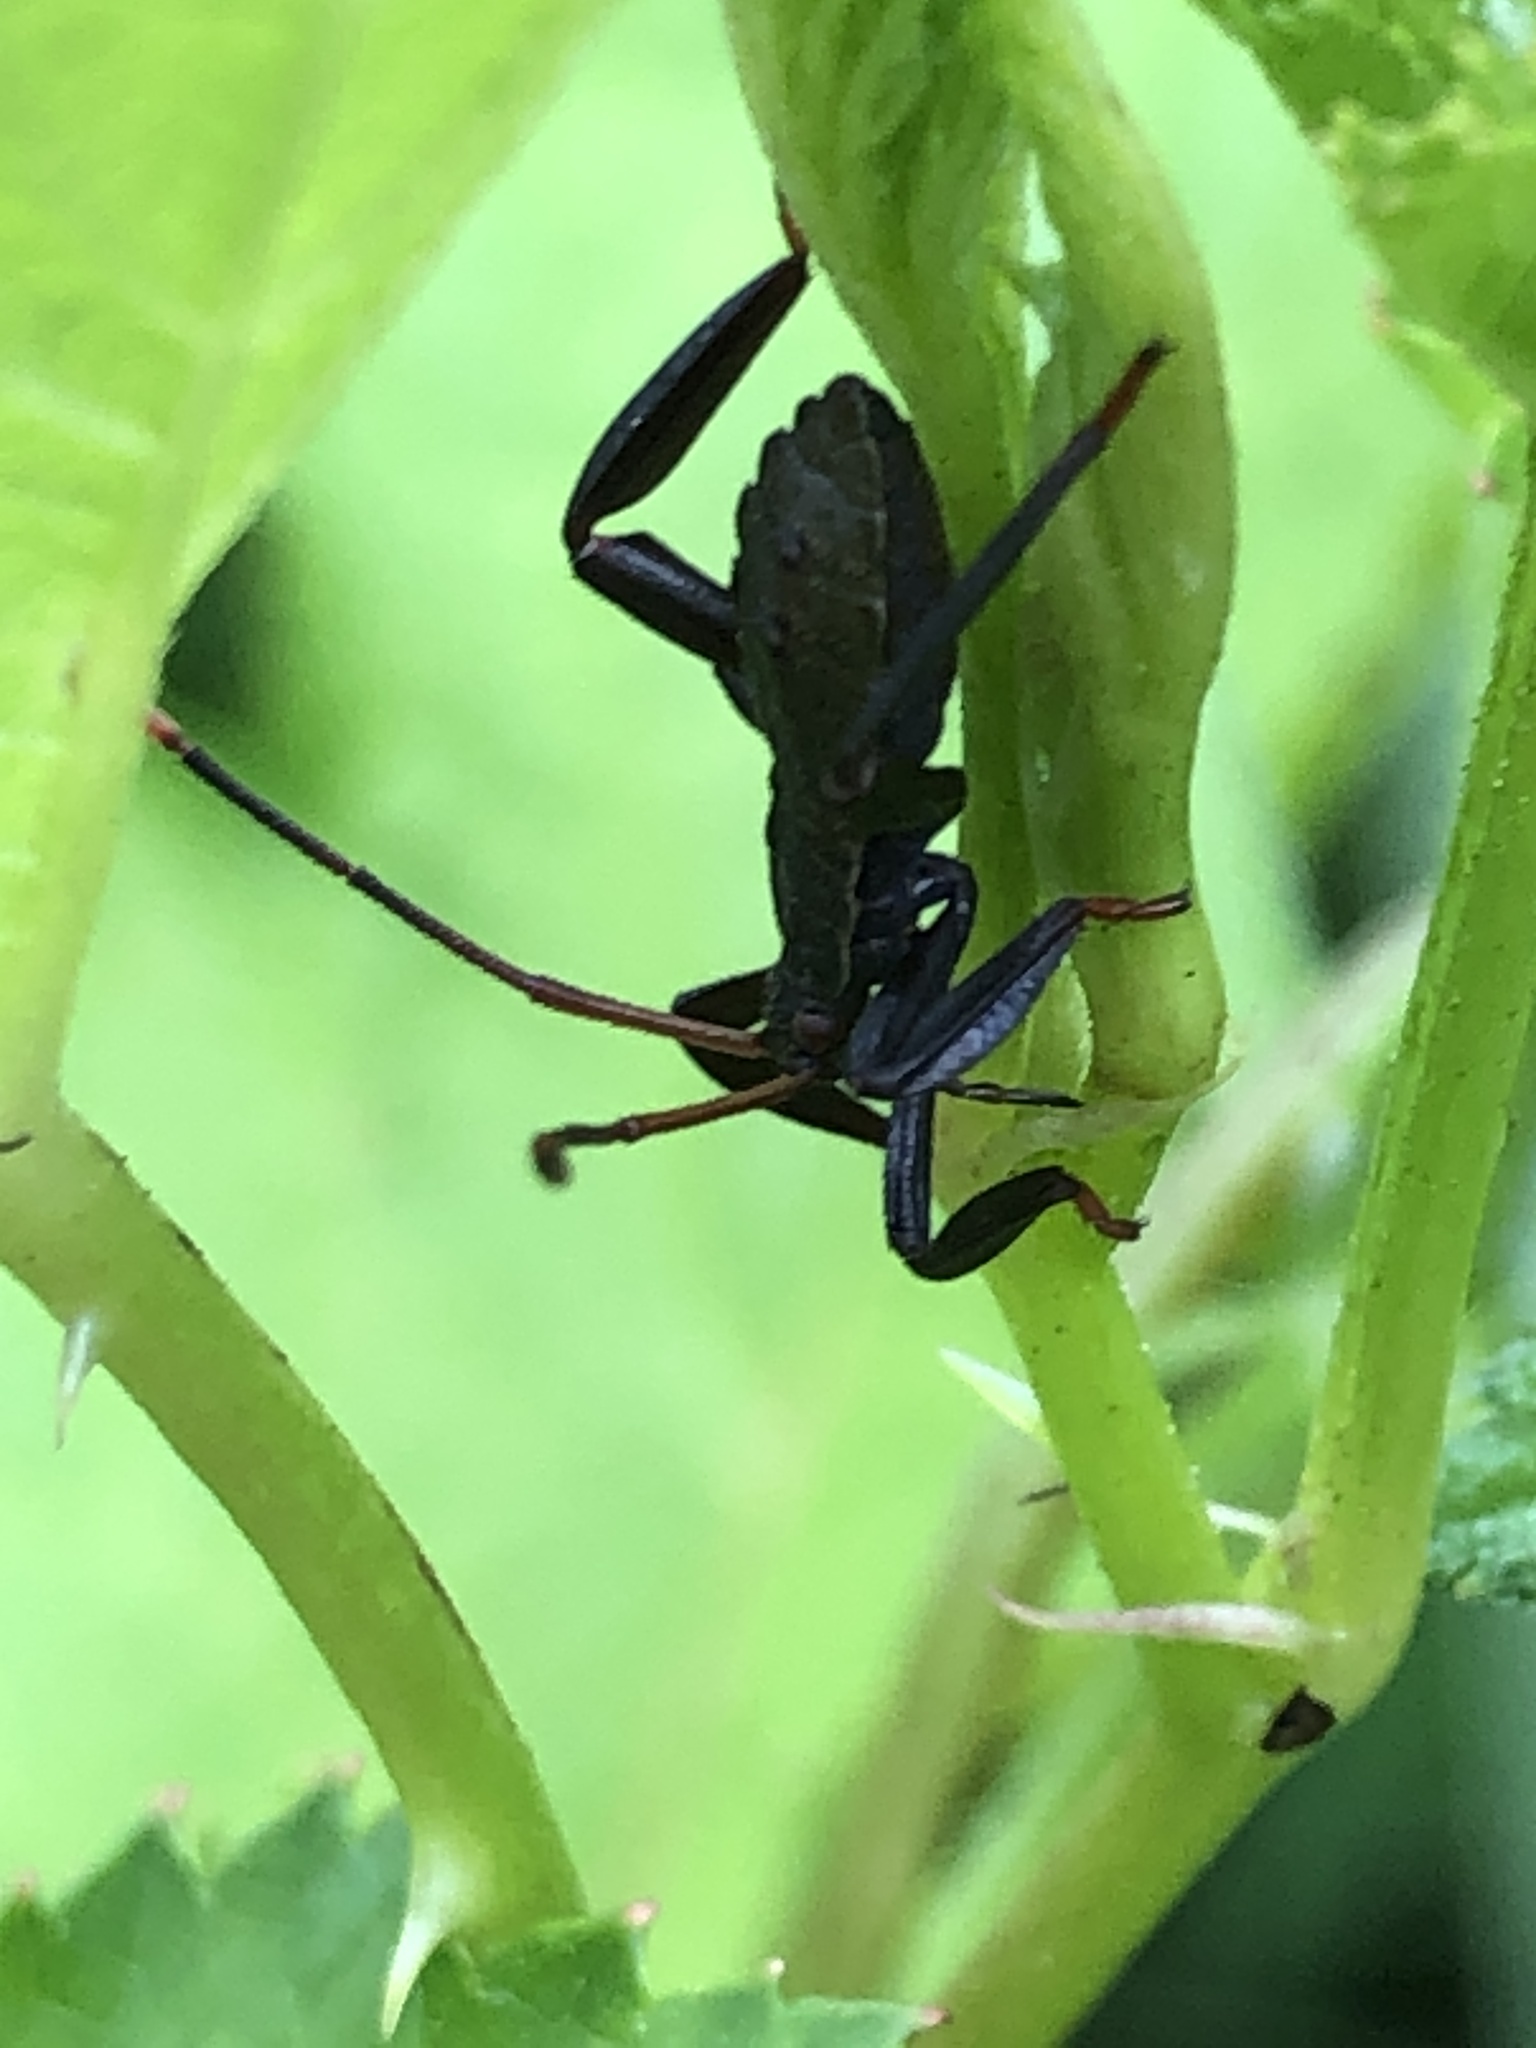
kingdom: Animalia
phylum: Arthropoda
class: Insecta
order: Hemiptera
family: Coreidae
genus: Molipteryx
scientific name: Molipteryx fuliginosa
